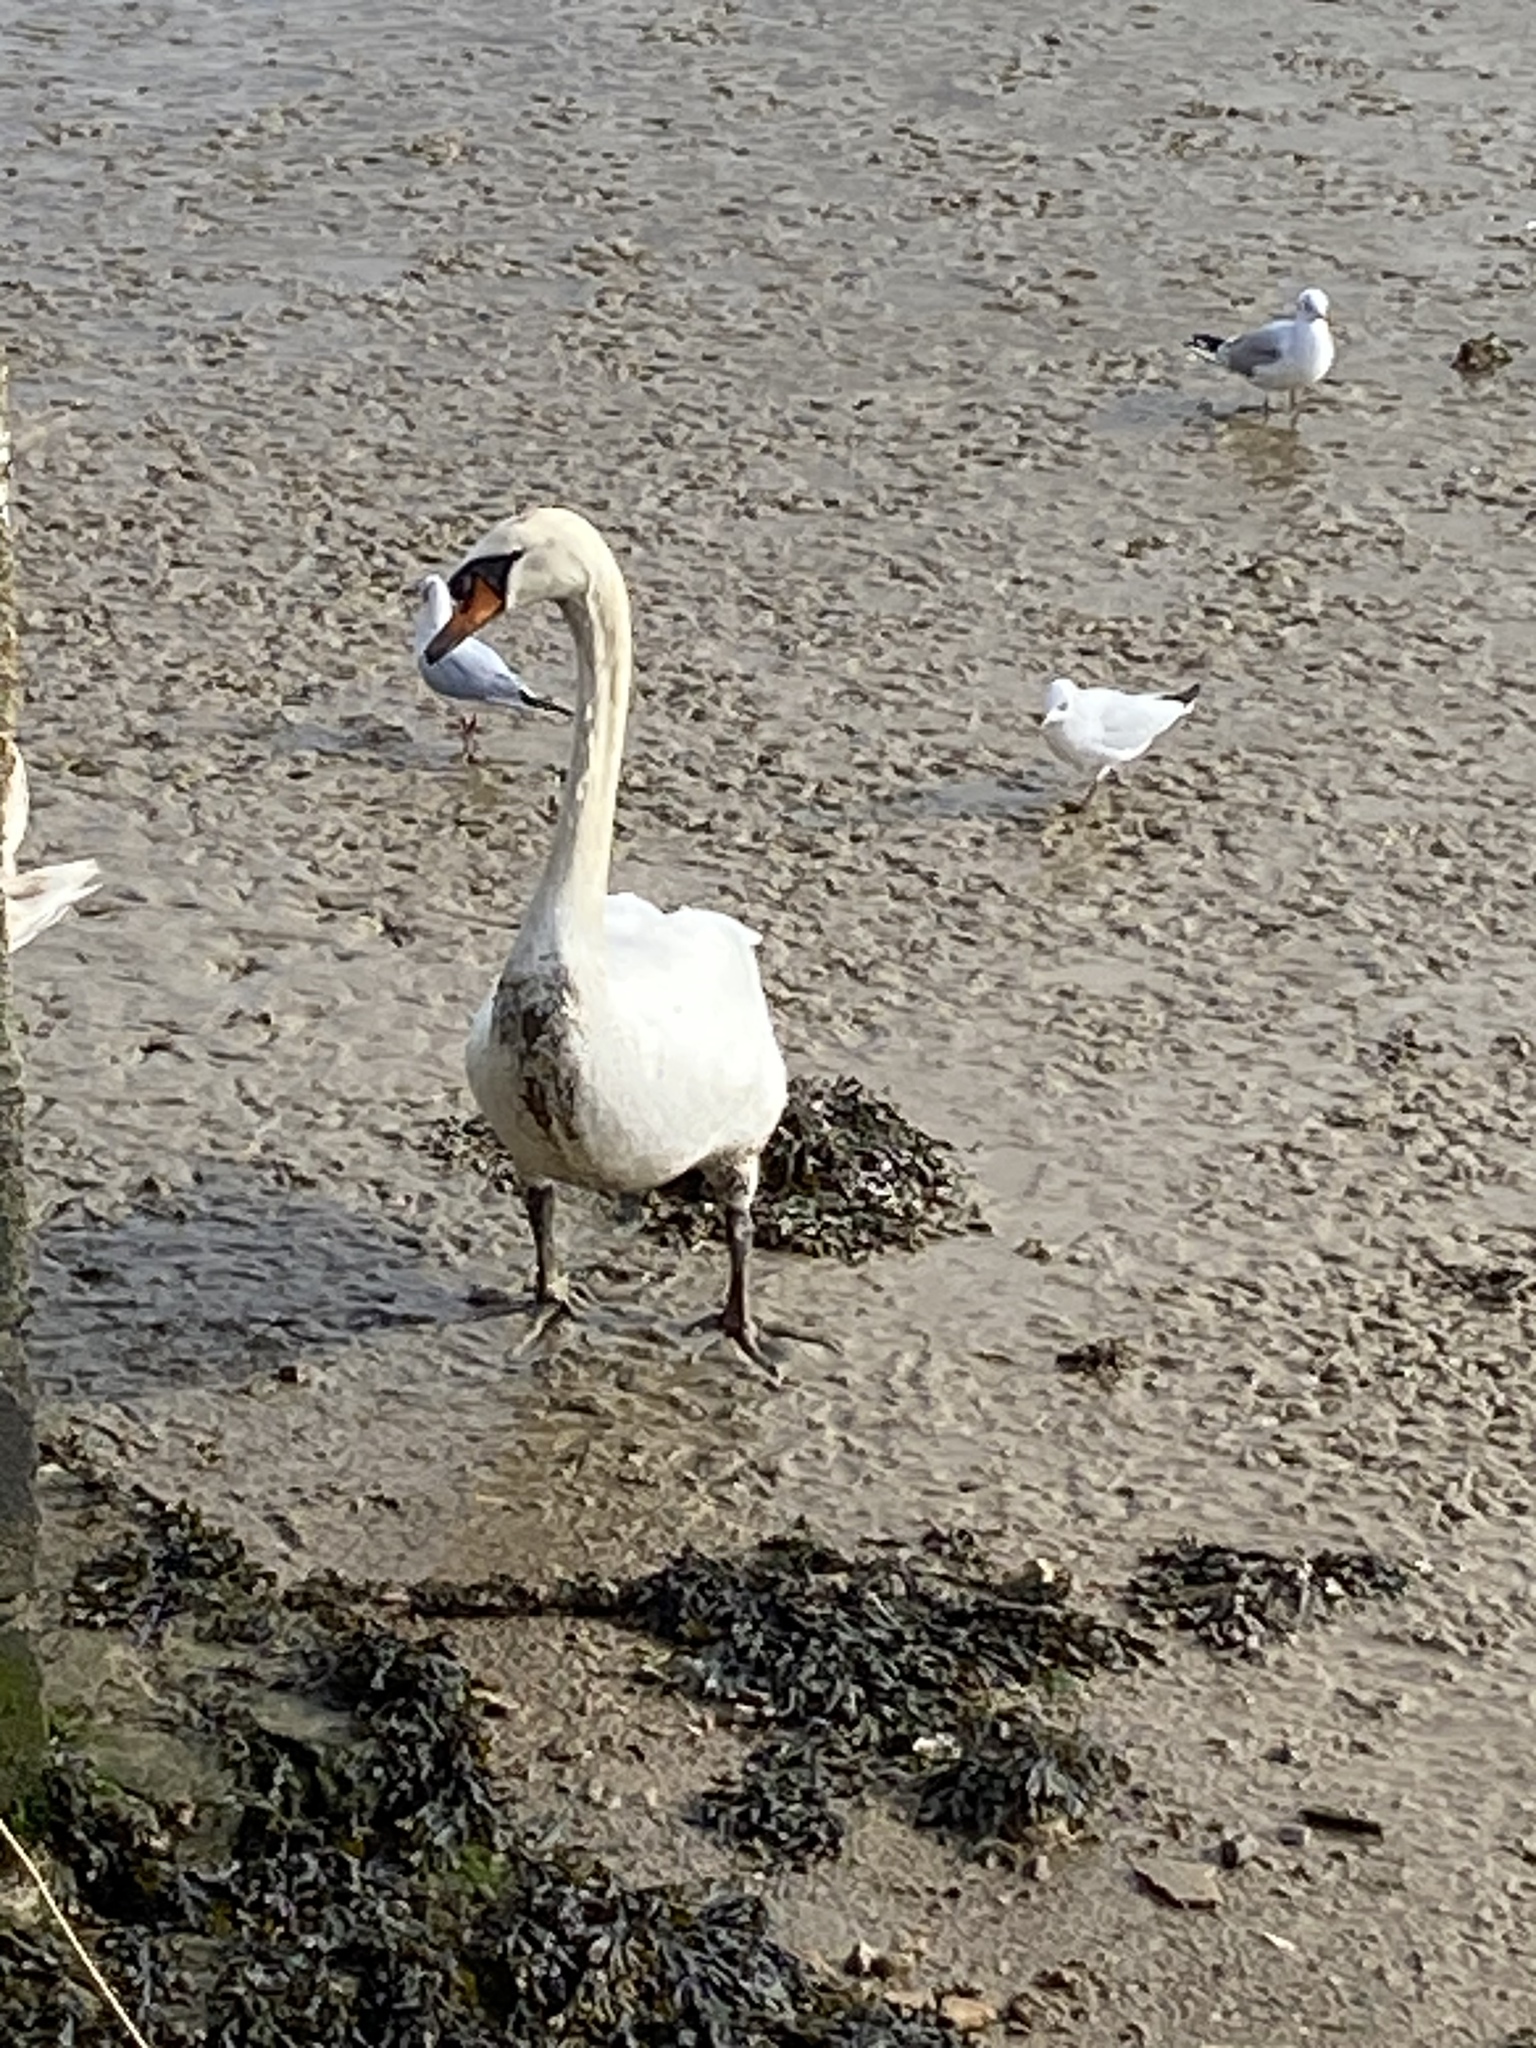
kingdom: Animalia
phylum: Chordata
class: Aves
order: Anseriformes
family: Anatidae
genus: Cygnus
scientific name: Cygnus olor
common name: Mute swan
